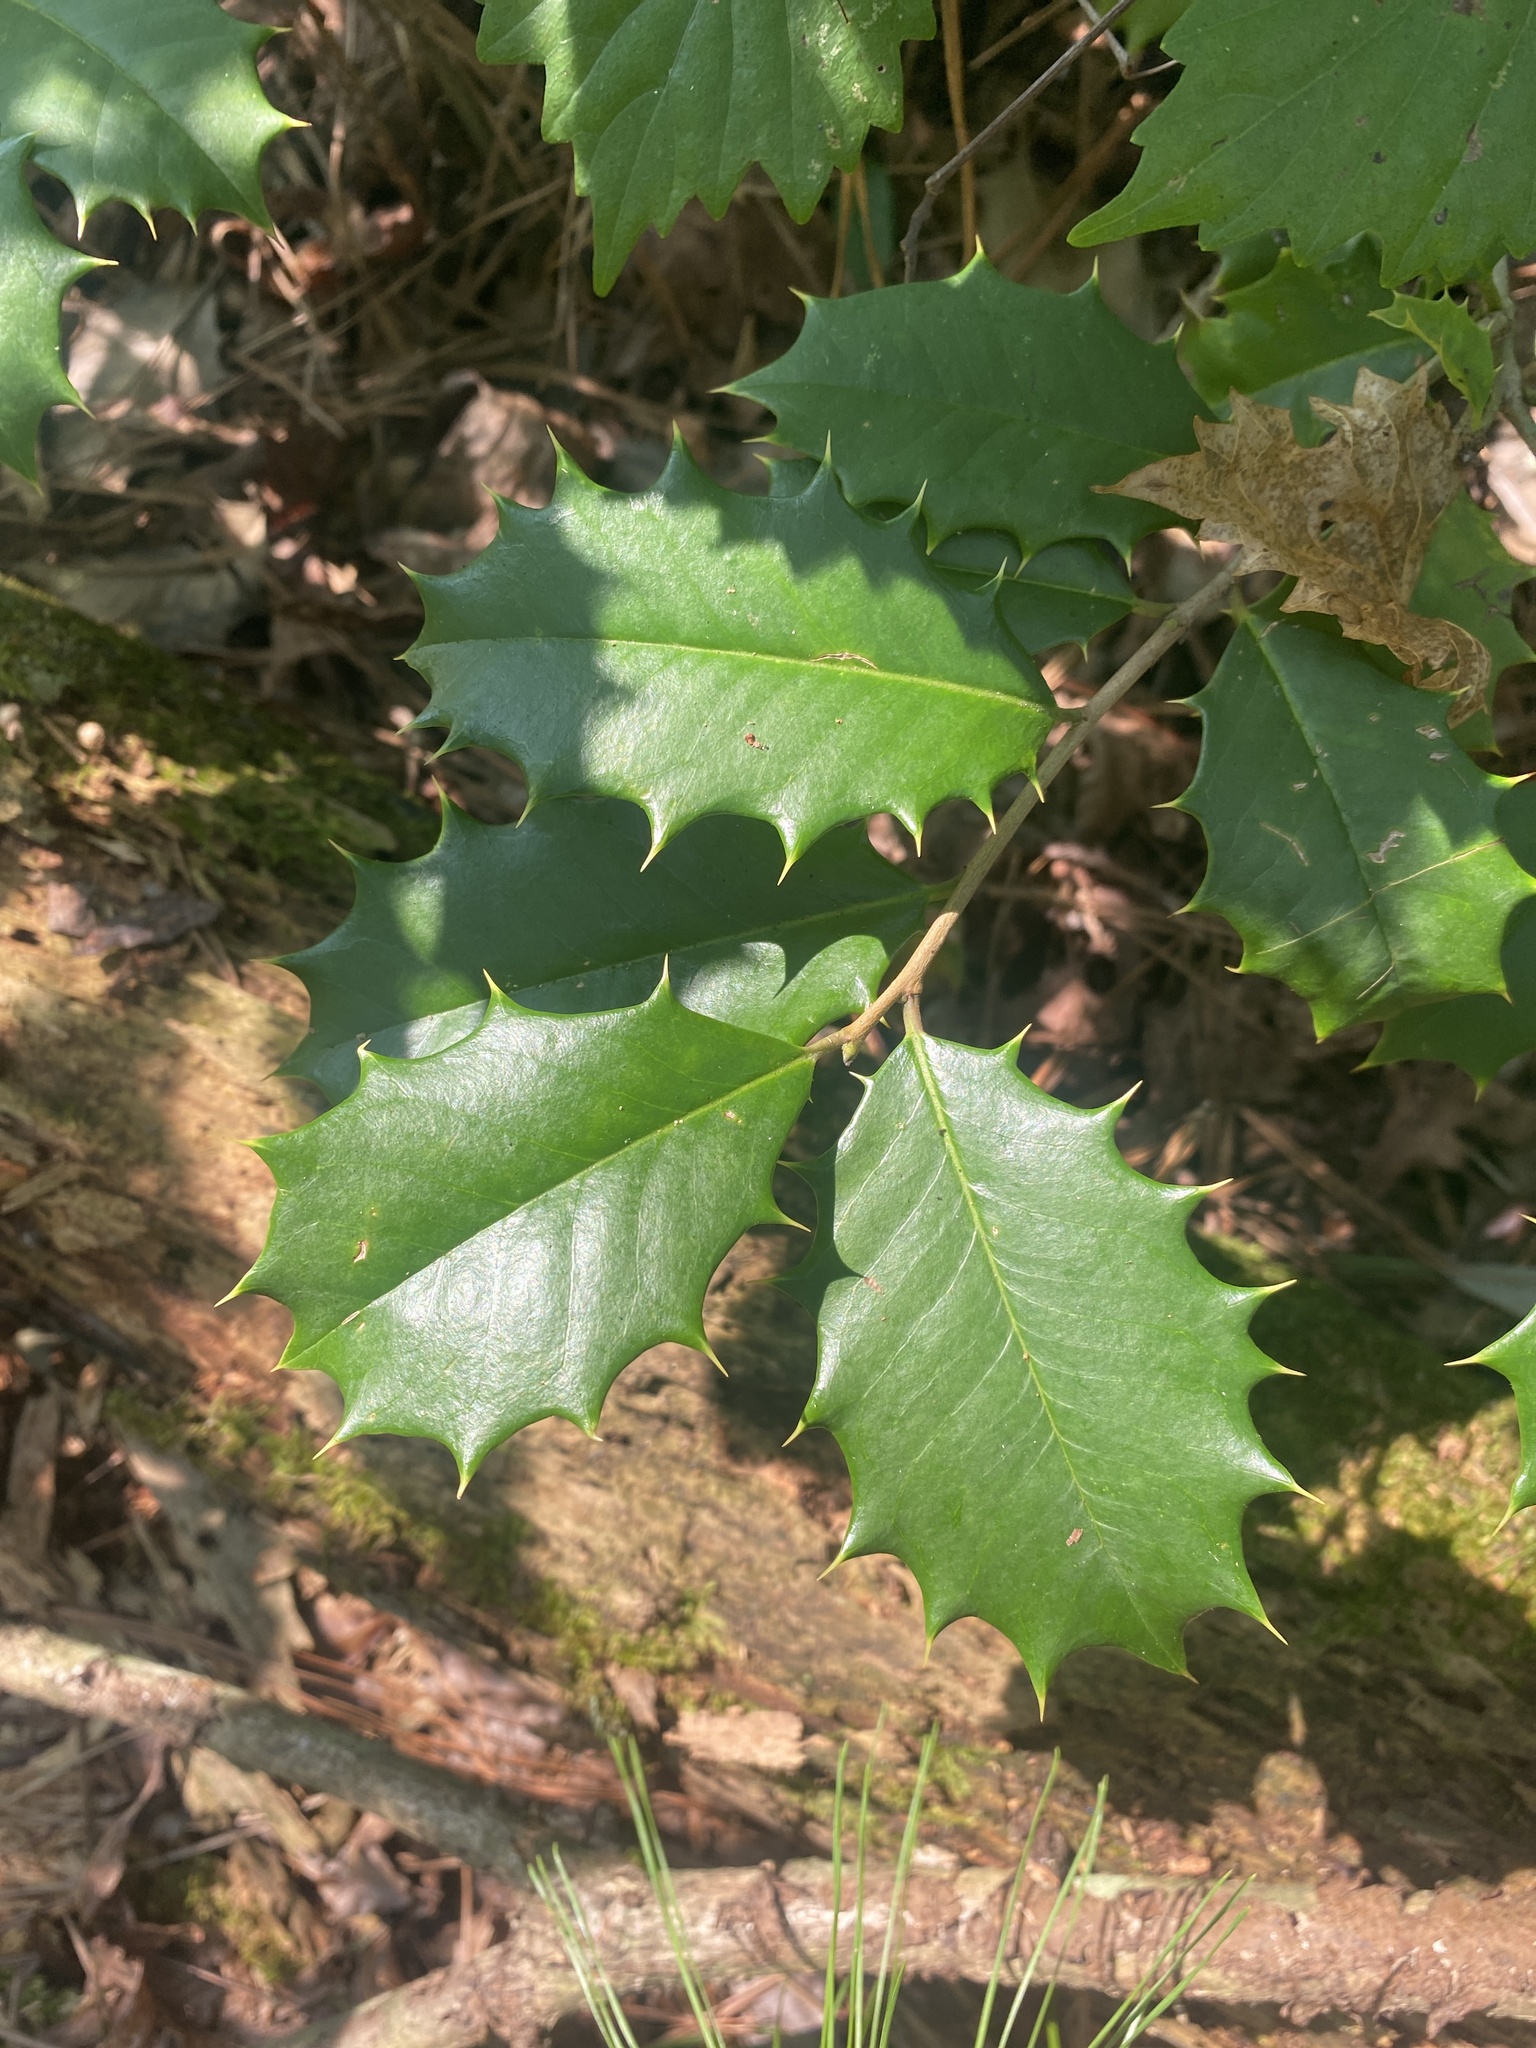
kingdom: Plantae
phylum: Tracheophyta
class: Magnoliopsida
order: Aquifoliales
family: Aquifoliaceae
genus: Ilex
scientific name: Ilex opaca
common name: American holly
